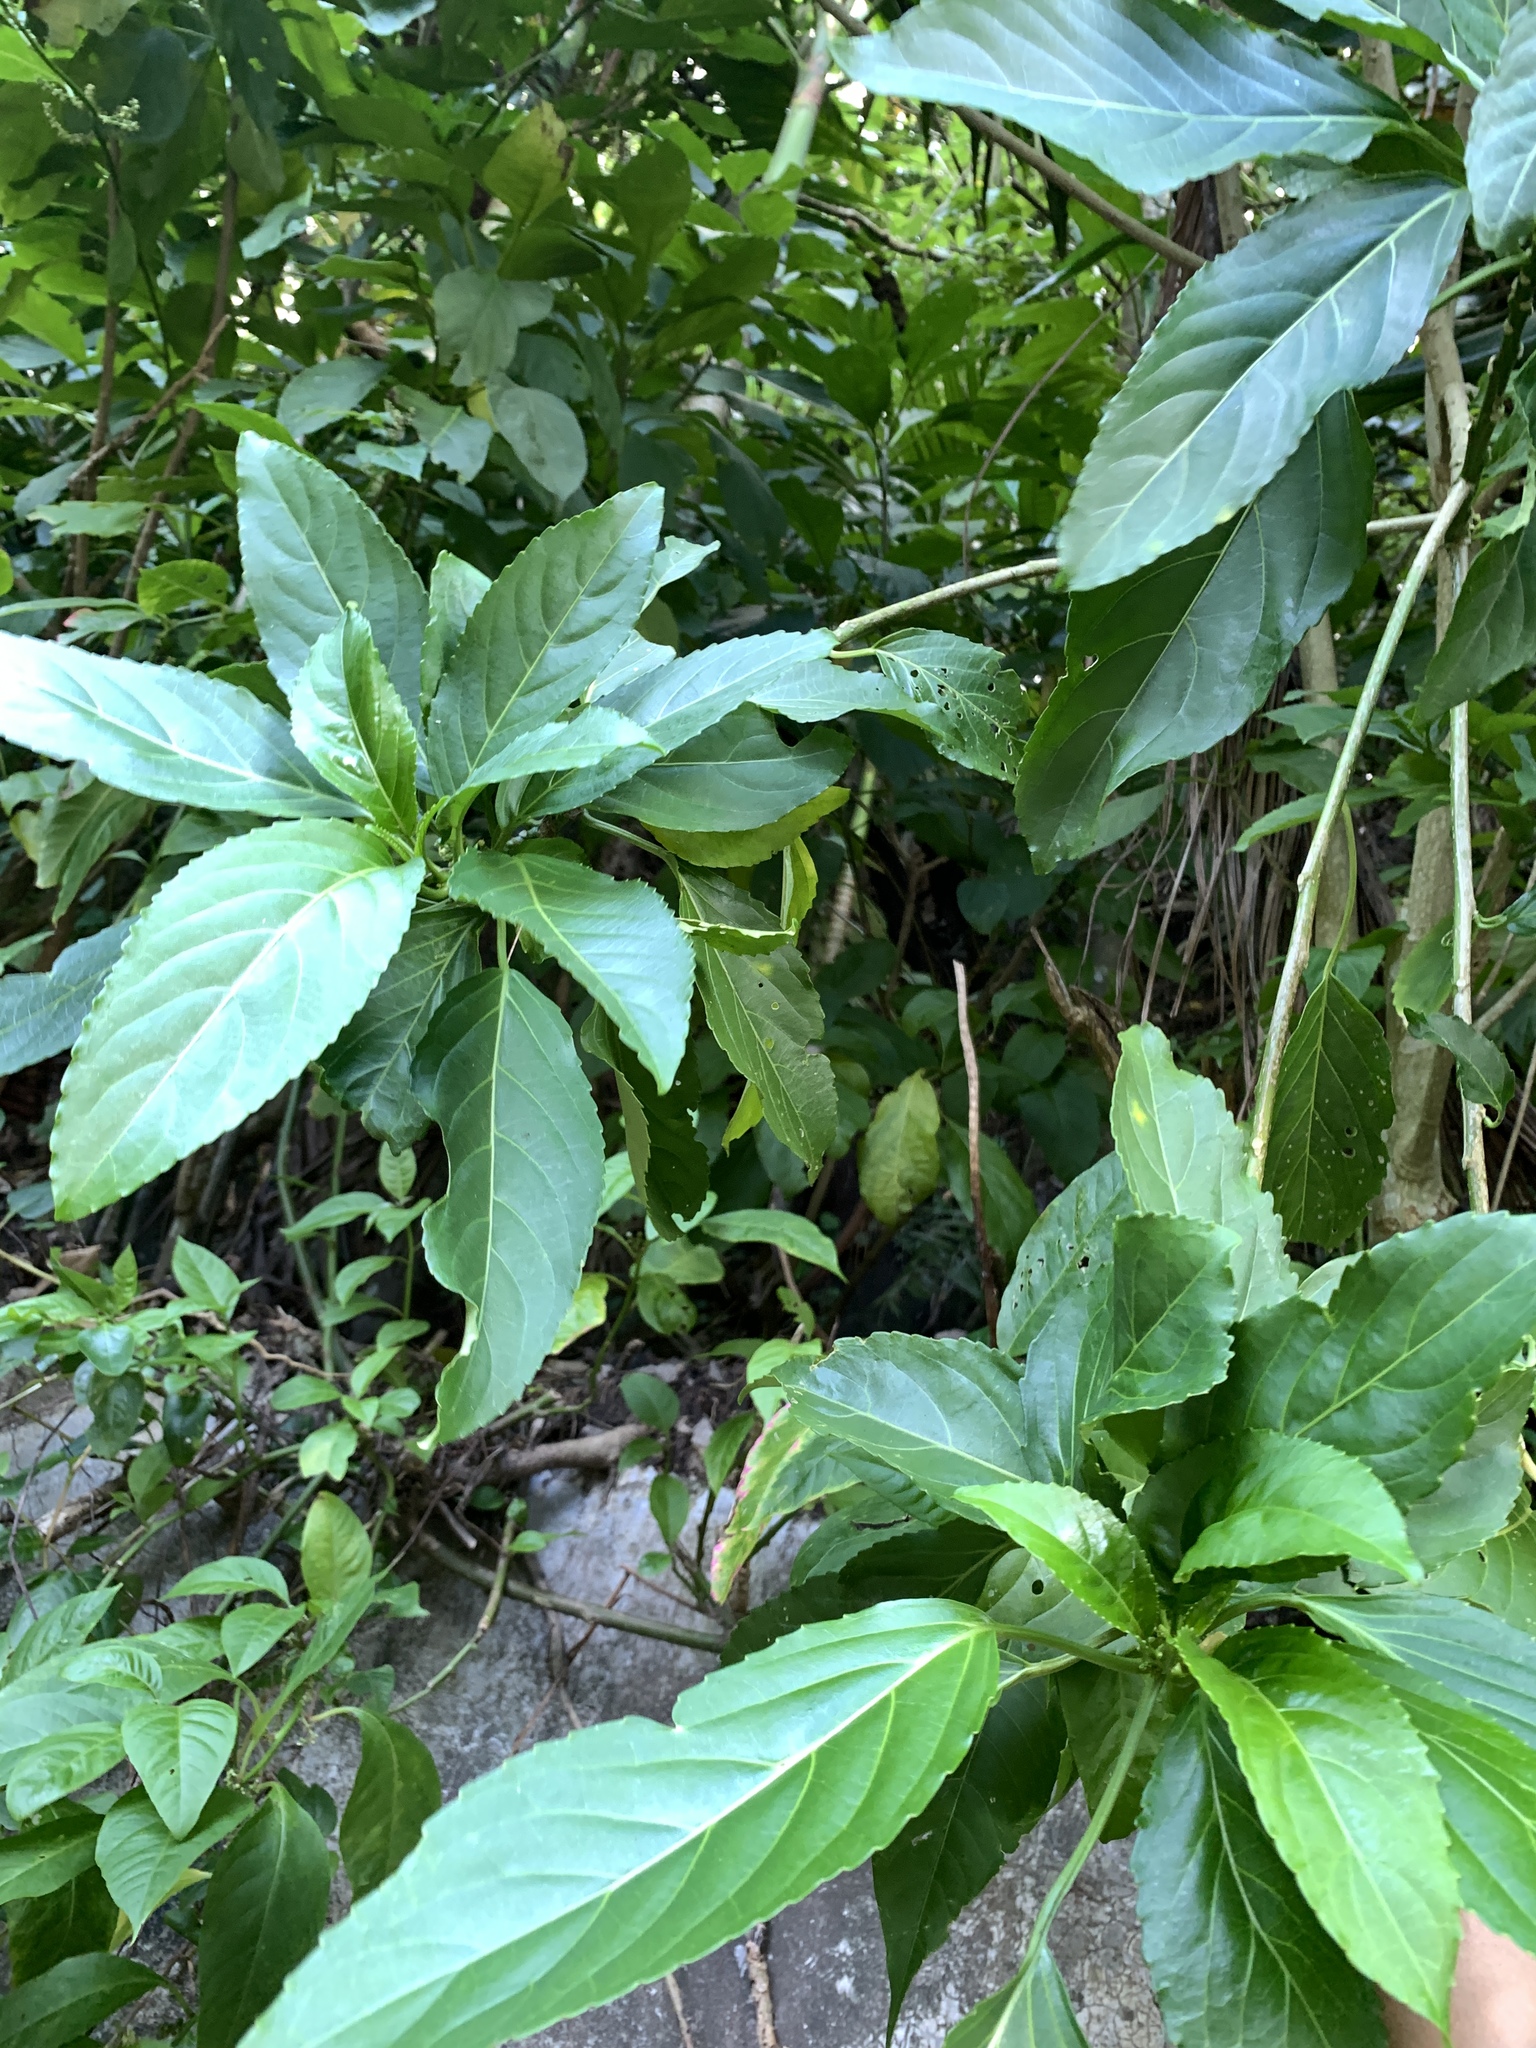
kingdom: Plantae
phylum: Tracheophyta
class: Magnoliopsida
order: Malpighiales
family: Euphorbiaceae
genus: Claoxylon
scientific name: Claoxylon brachyandrum
